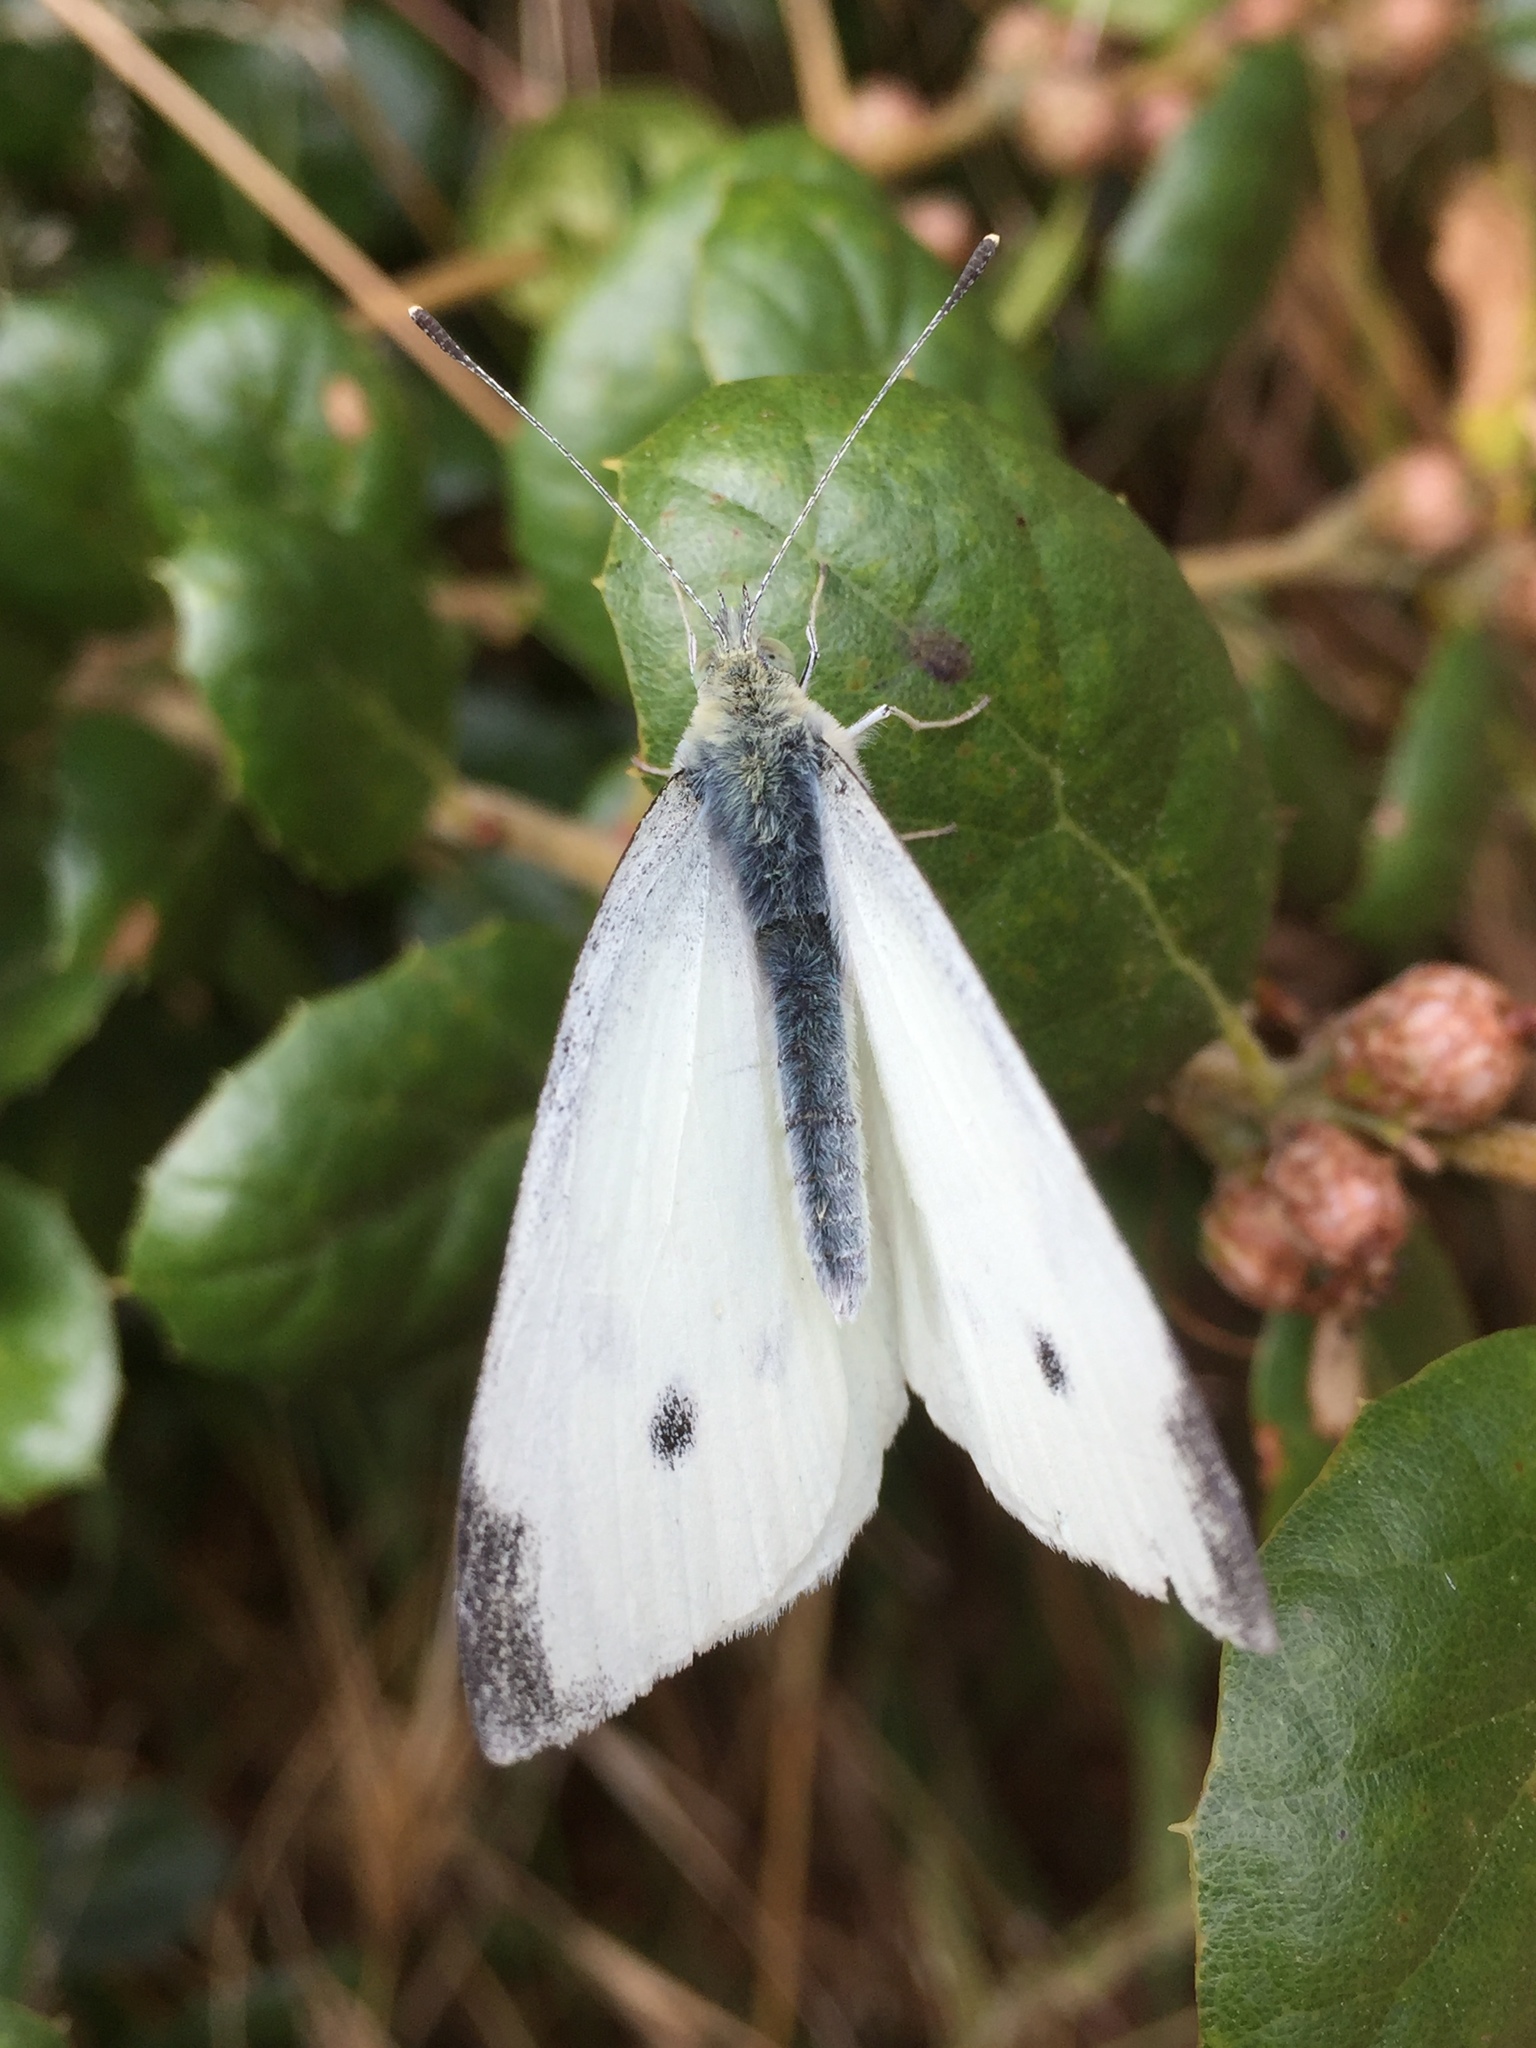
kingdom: Animalia
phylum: Arthropoda
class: Insecta
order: Lepidoptera
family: Pieridae
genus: Pieris
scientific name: Pieris rapae
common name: Small white
